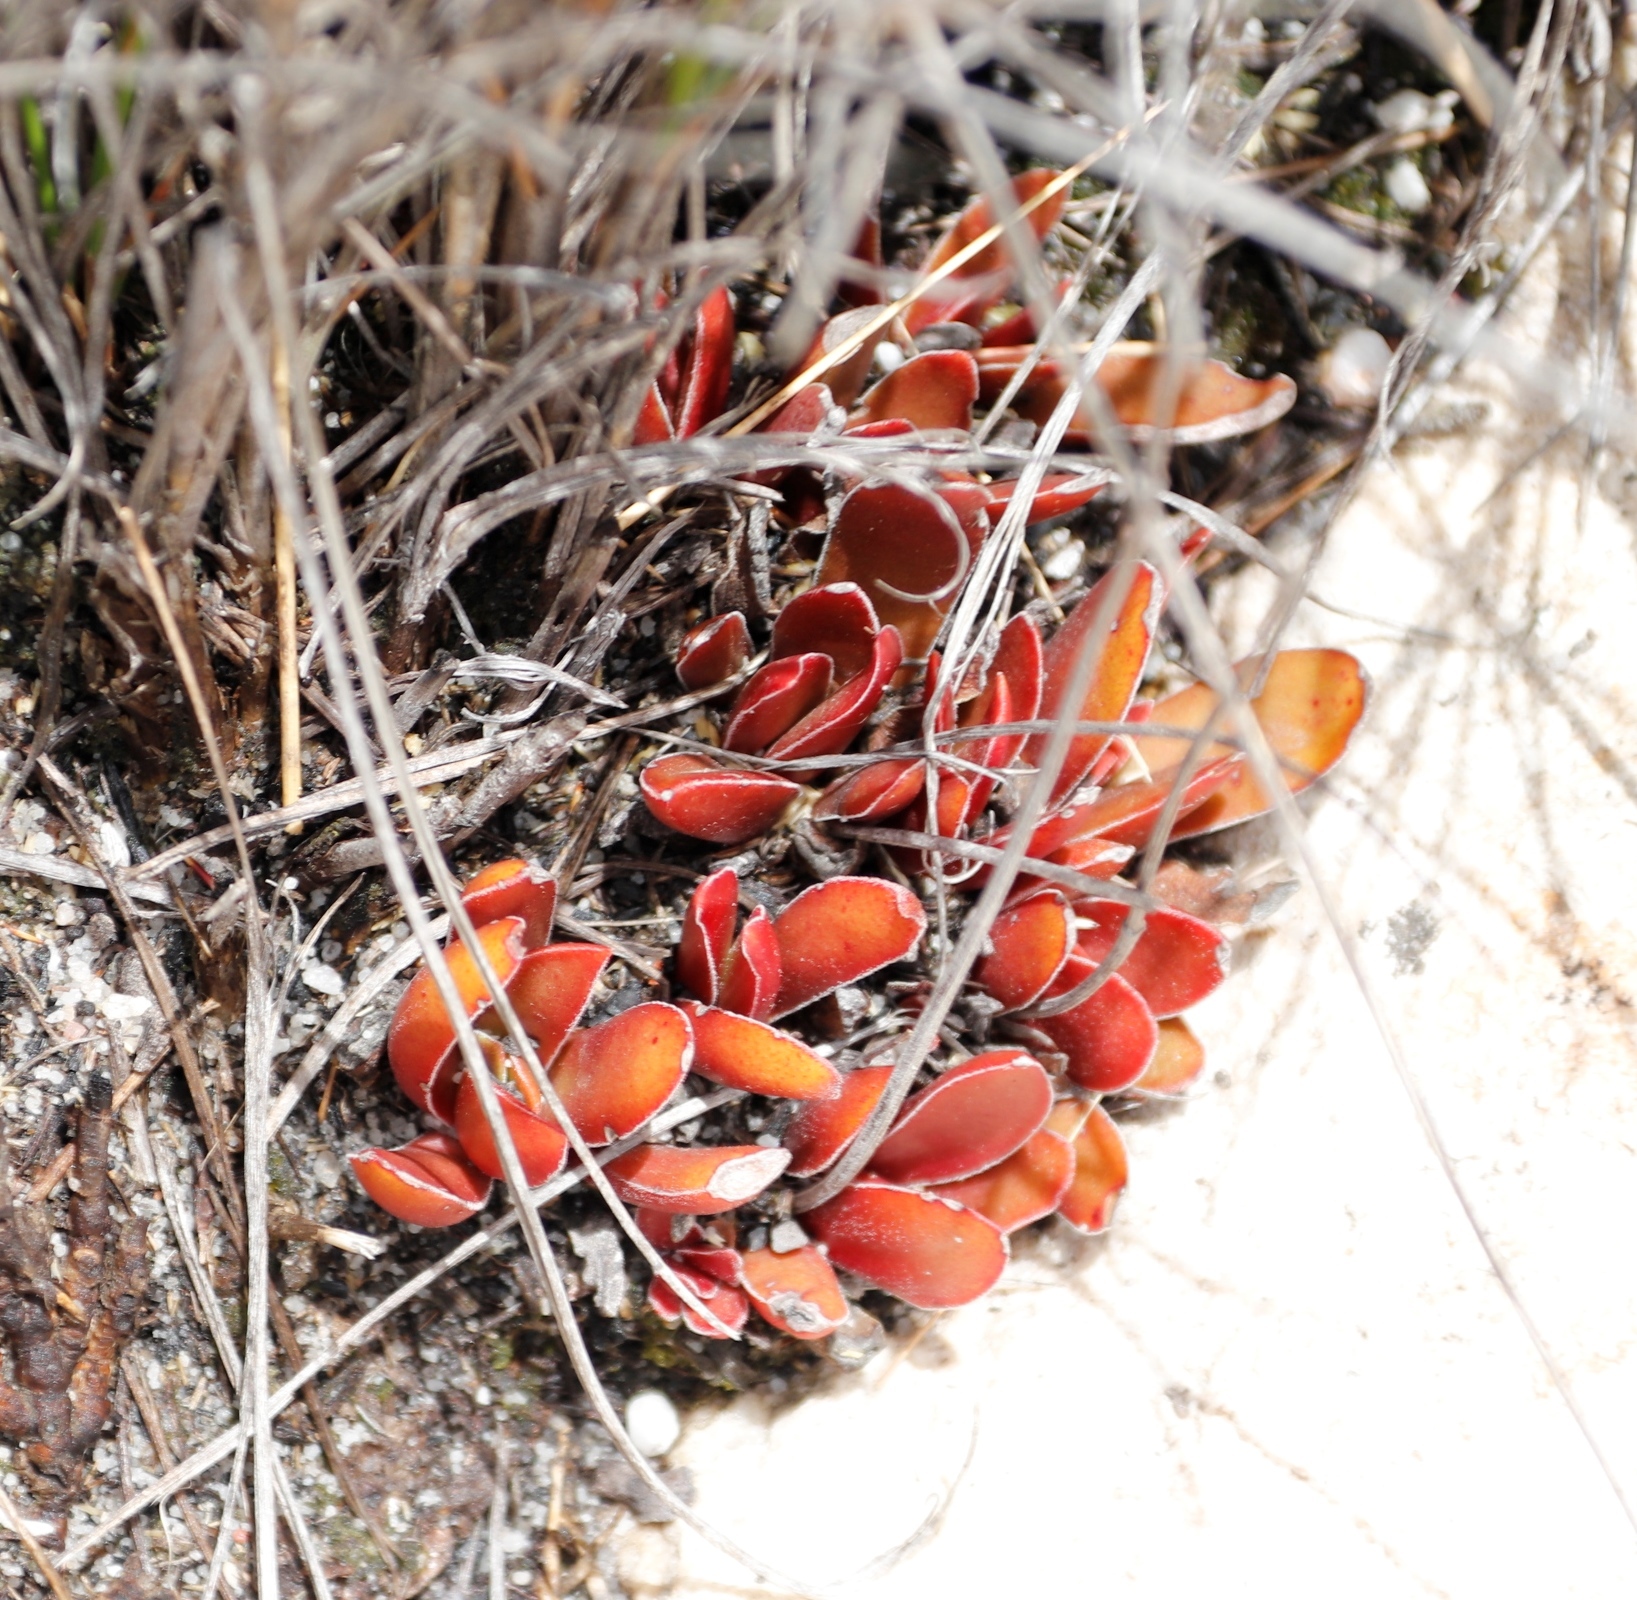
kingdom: Plantae
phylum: Tracheophyta
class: Magnoliopsida
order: Saxifragales
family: Crassulaceae
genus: Crassula
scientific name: Crassula nudicaulis
